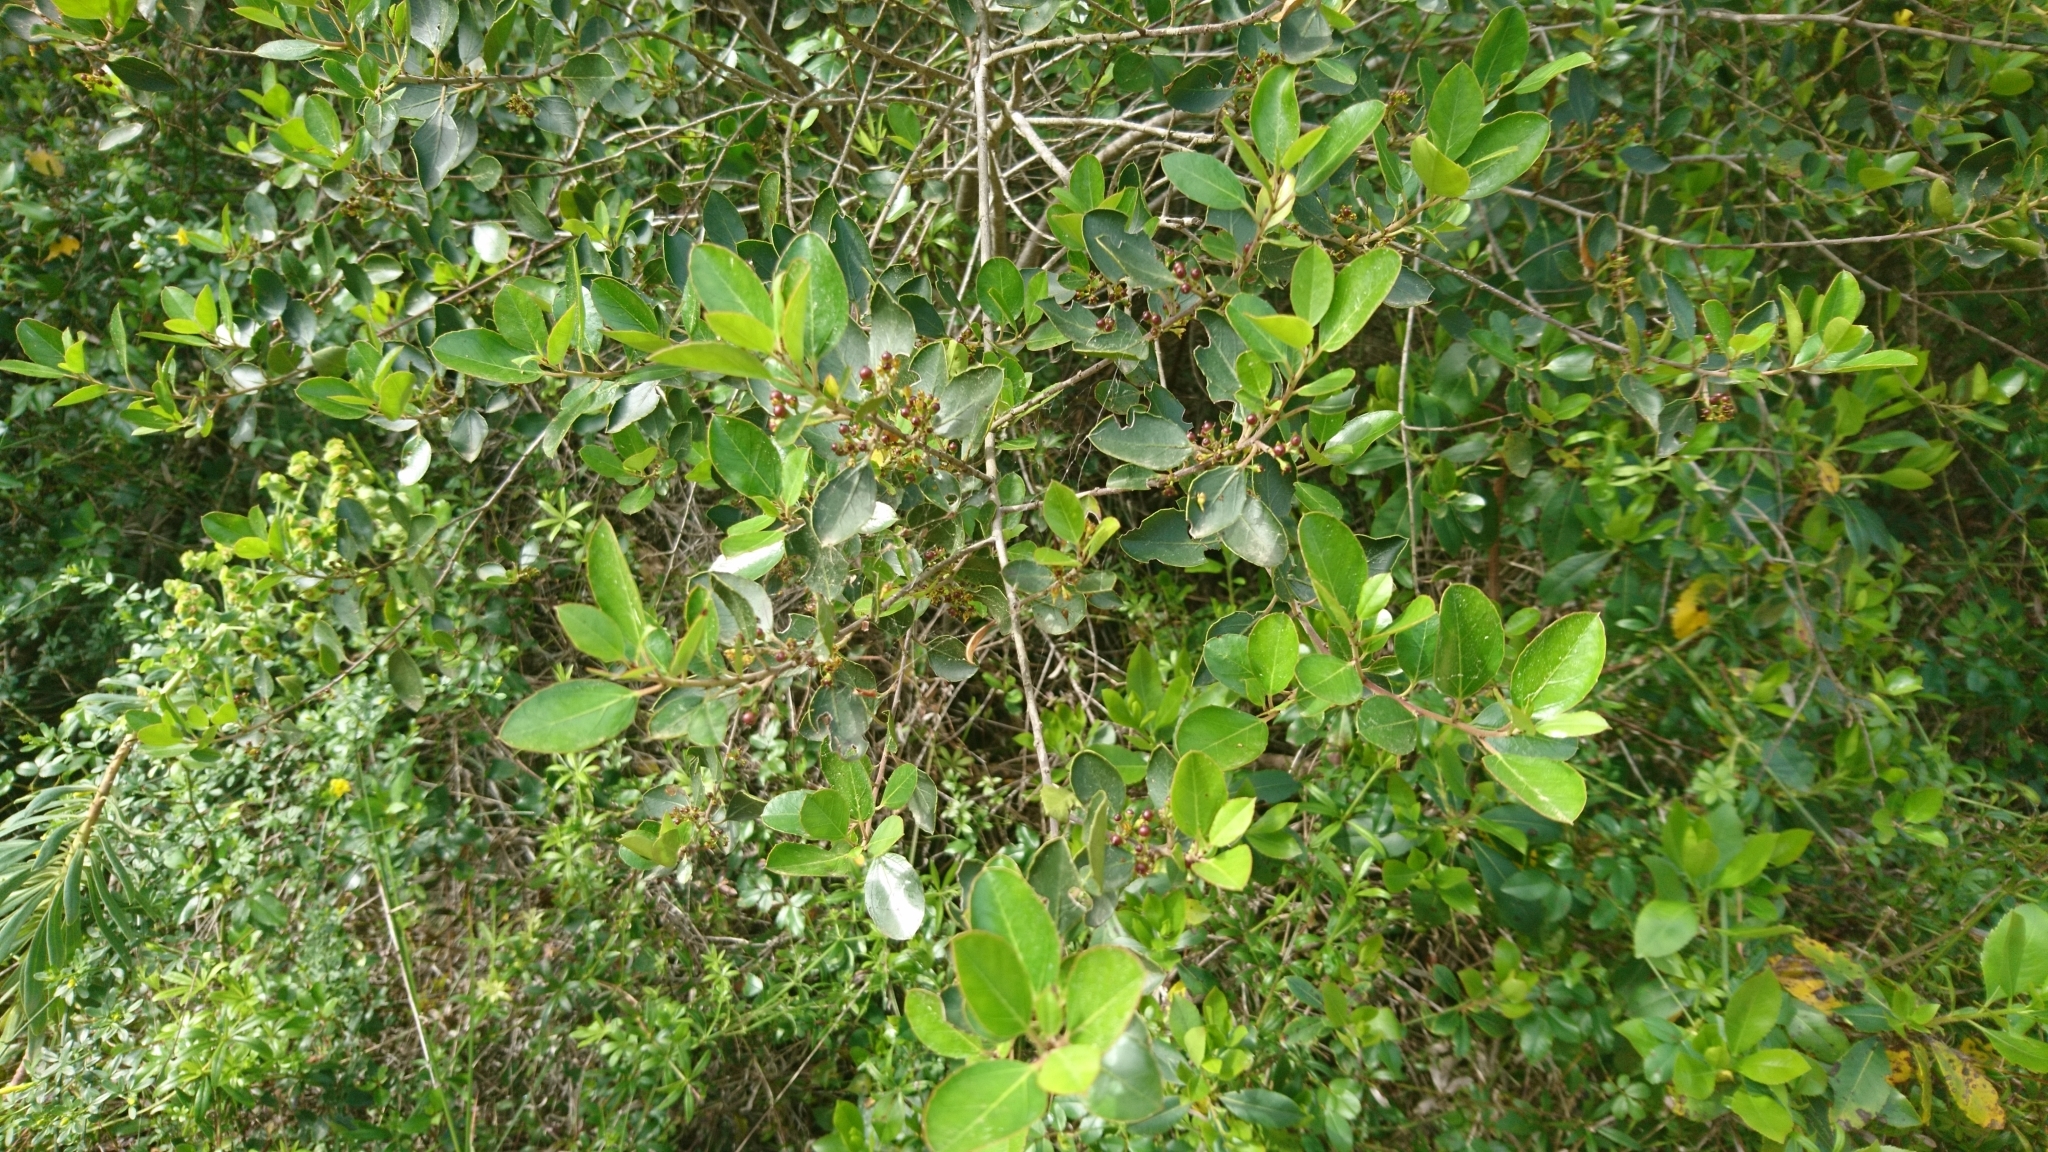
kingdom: Plantae
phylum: Tracheophyta
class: Magnoliopsida
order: Rosales
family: Rhamnaceae
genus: Rhamnus
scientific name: Rhamnus alaternus
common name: Mediterranean buckthorn
